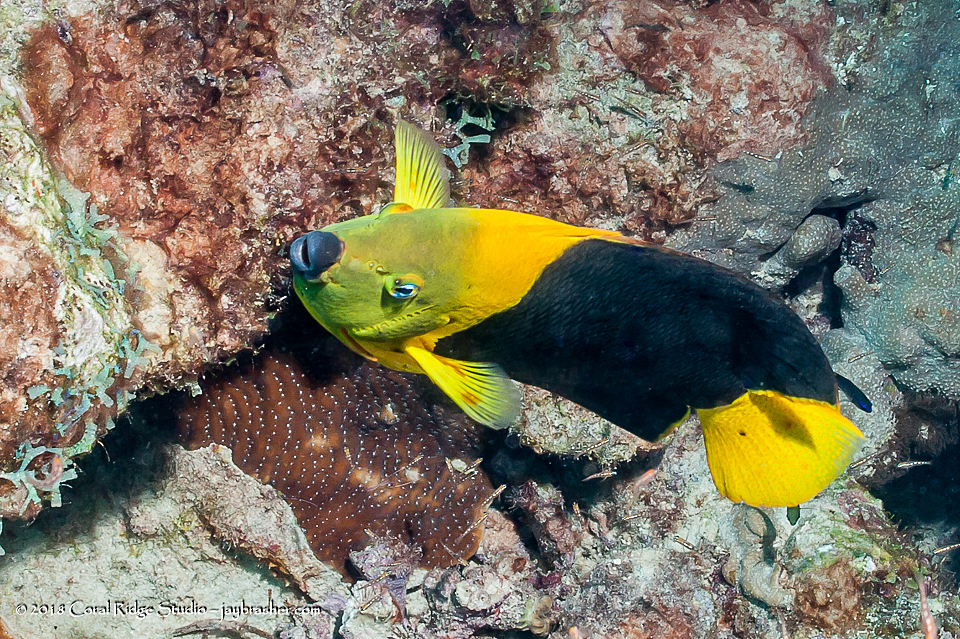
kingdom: Animalia
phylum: Chordata
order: Perciformes
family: Pomacanthidae
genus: Holacanthus
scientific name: Holacanthus tricolor
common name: Rock beauty
